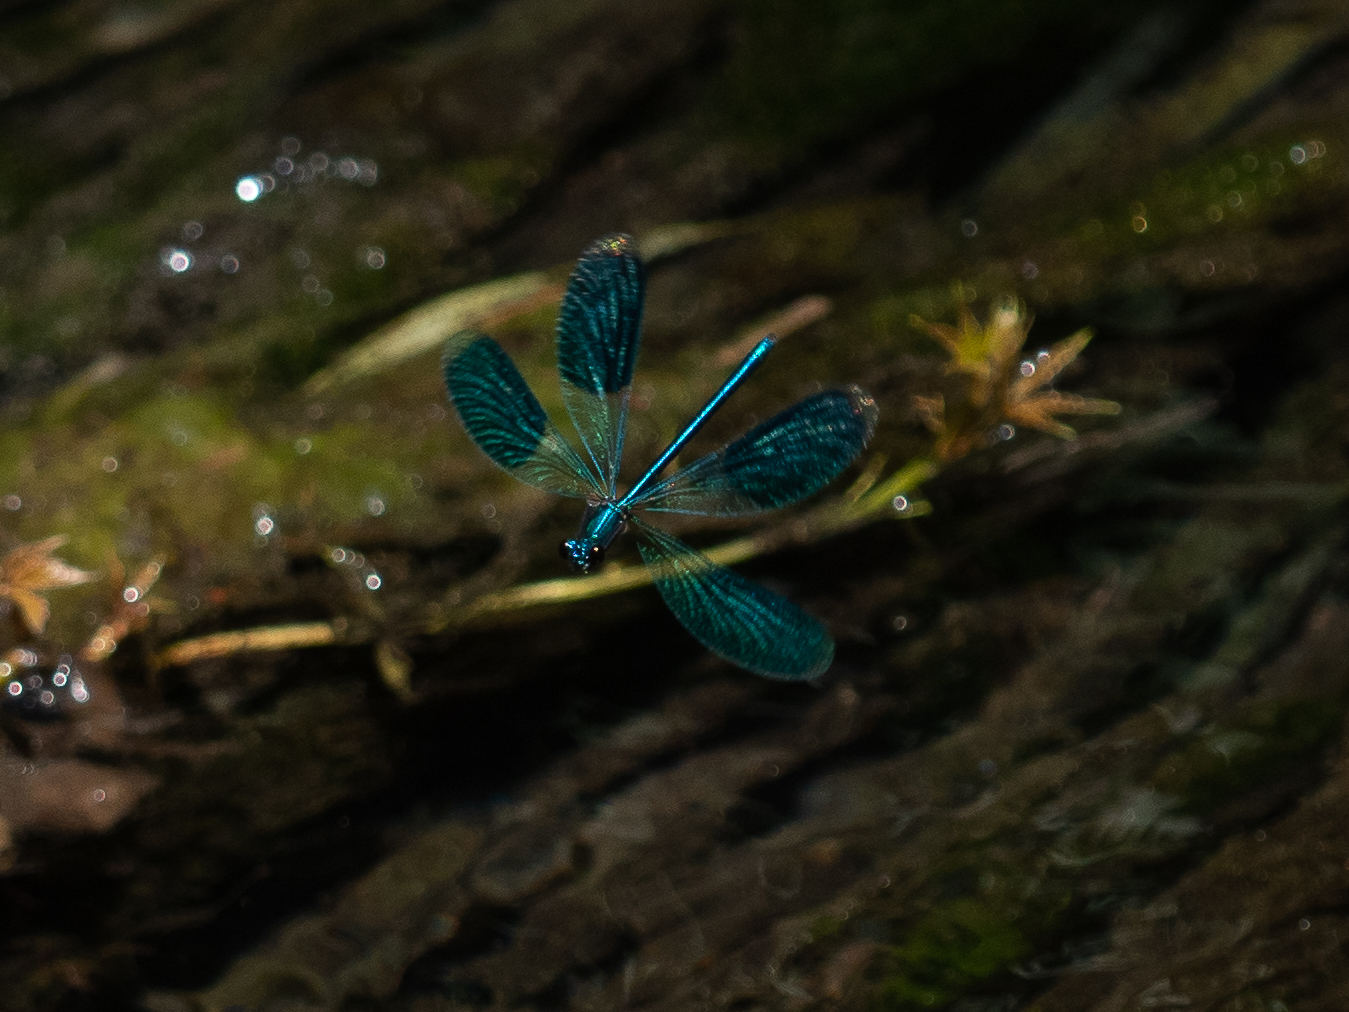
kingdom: Animalia
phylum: Arthropoda
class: Insecta
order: Odonata
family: Calopterygidae
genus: Calopteryx
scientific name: Calopteryx splendens
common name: Banded demoiselle
